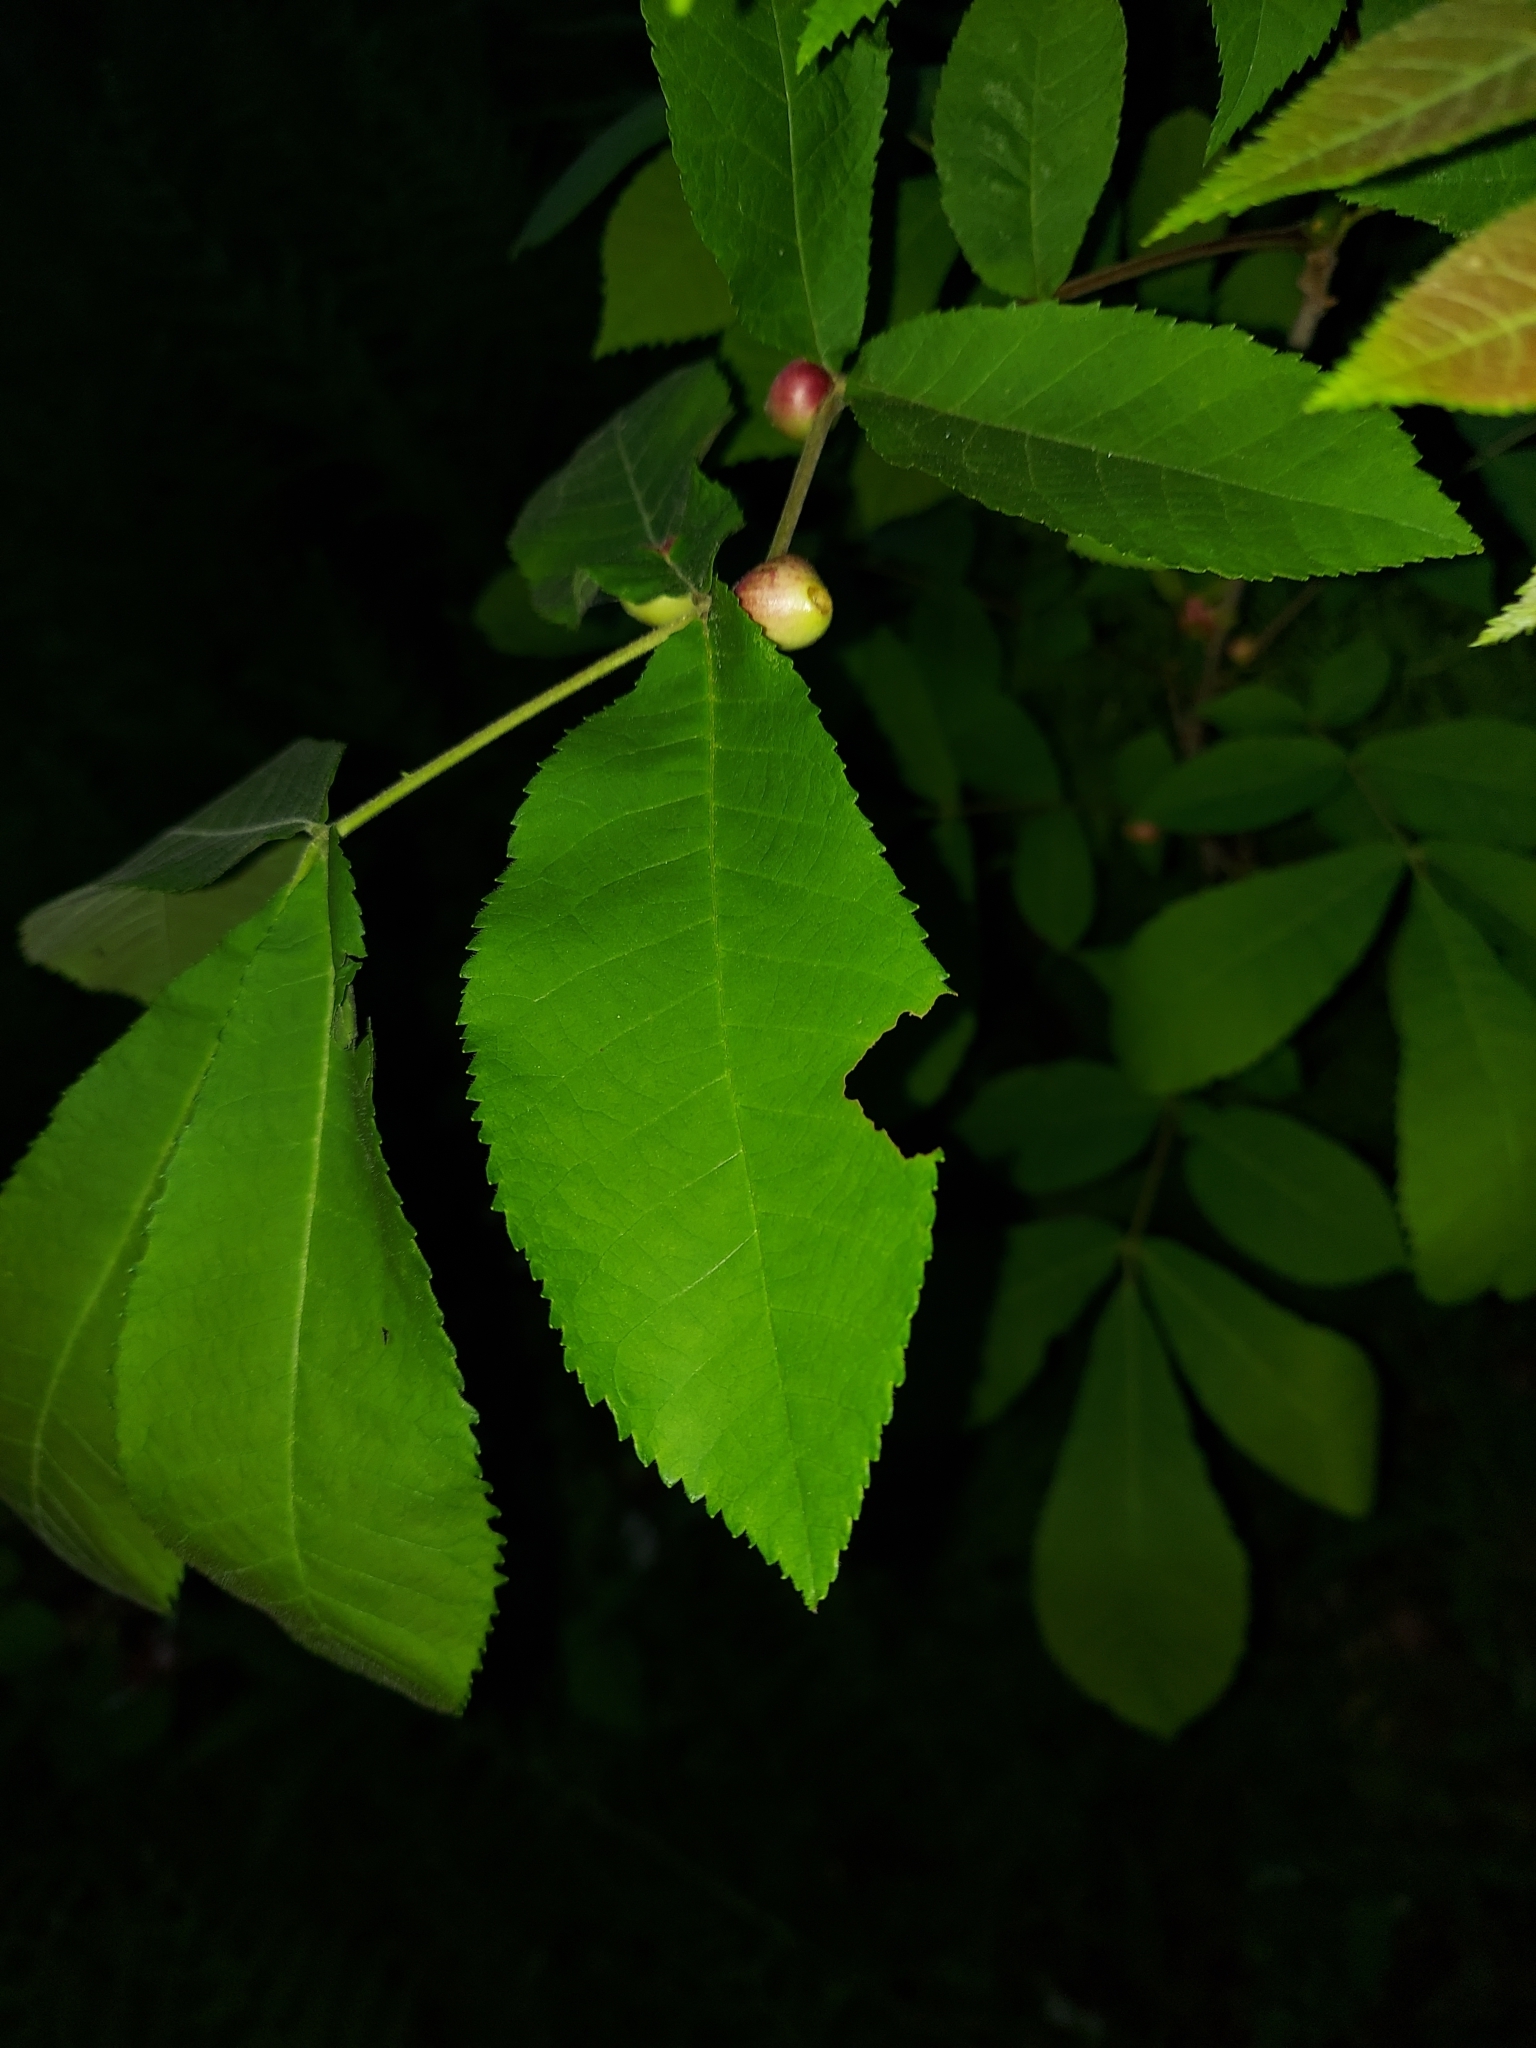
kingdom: Animalia
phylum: Arthropoda
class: Insecta
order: Hemiptera
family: Phylloxeridae
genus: Phylloxera
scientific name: Phylloxera
